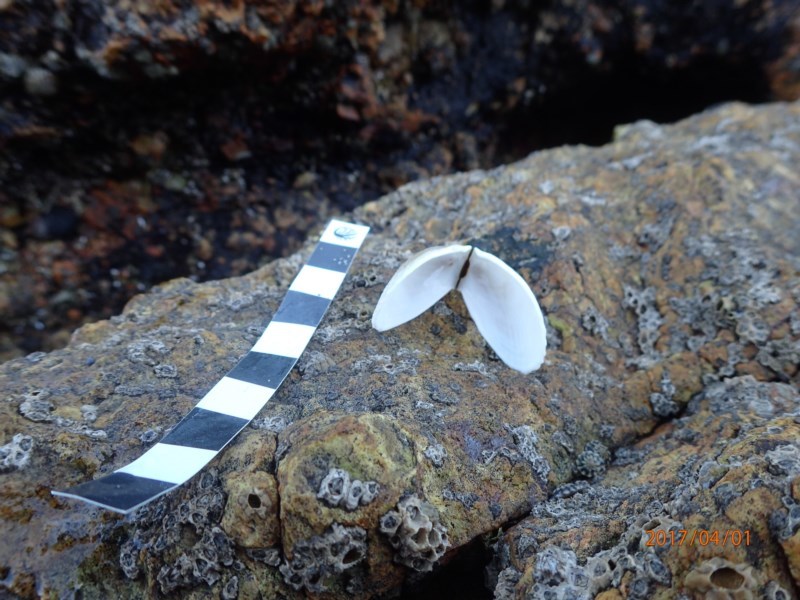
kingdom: Animalia
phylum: Mollusca
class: Bivalvia
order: Limida
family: Limidae
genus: Limatula
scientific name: Limatula strangei
